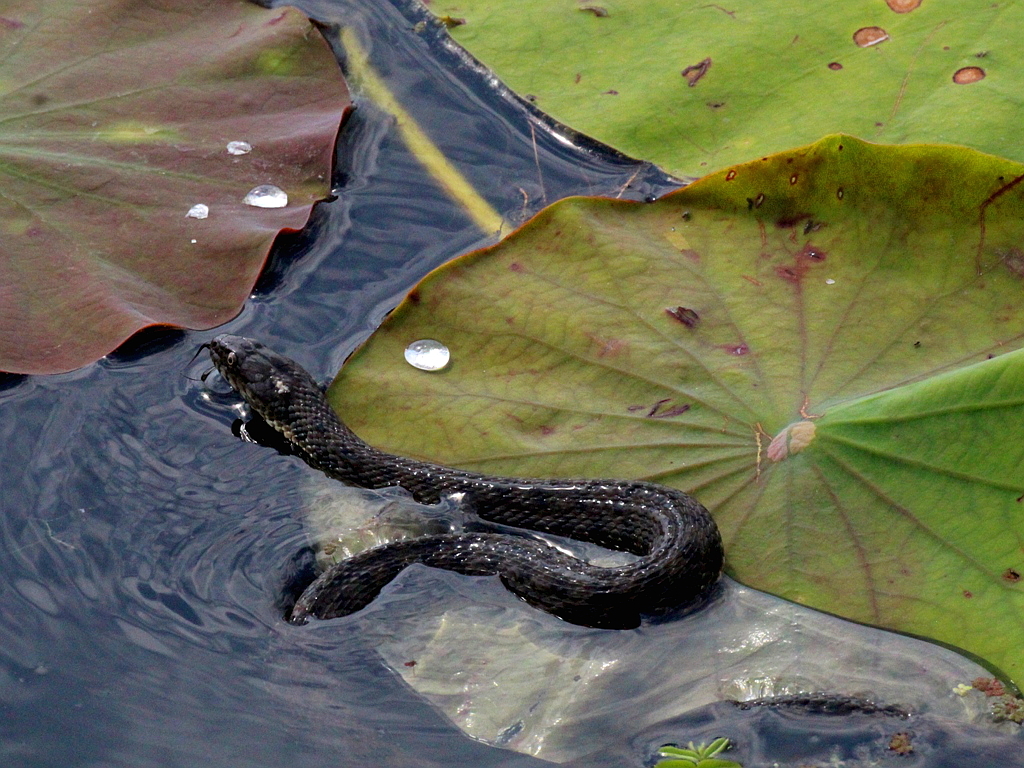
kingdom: Animalia
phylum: Chordata
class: Squamata
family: Colubridae
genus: Natrix
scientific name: Natrix tessellata
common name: Dice snake
